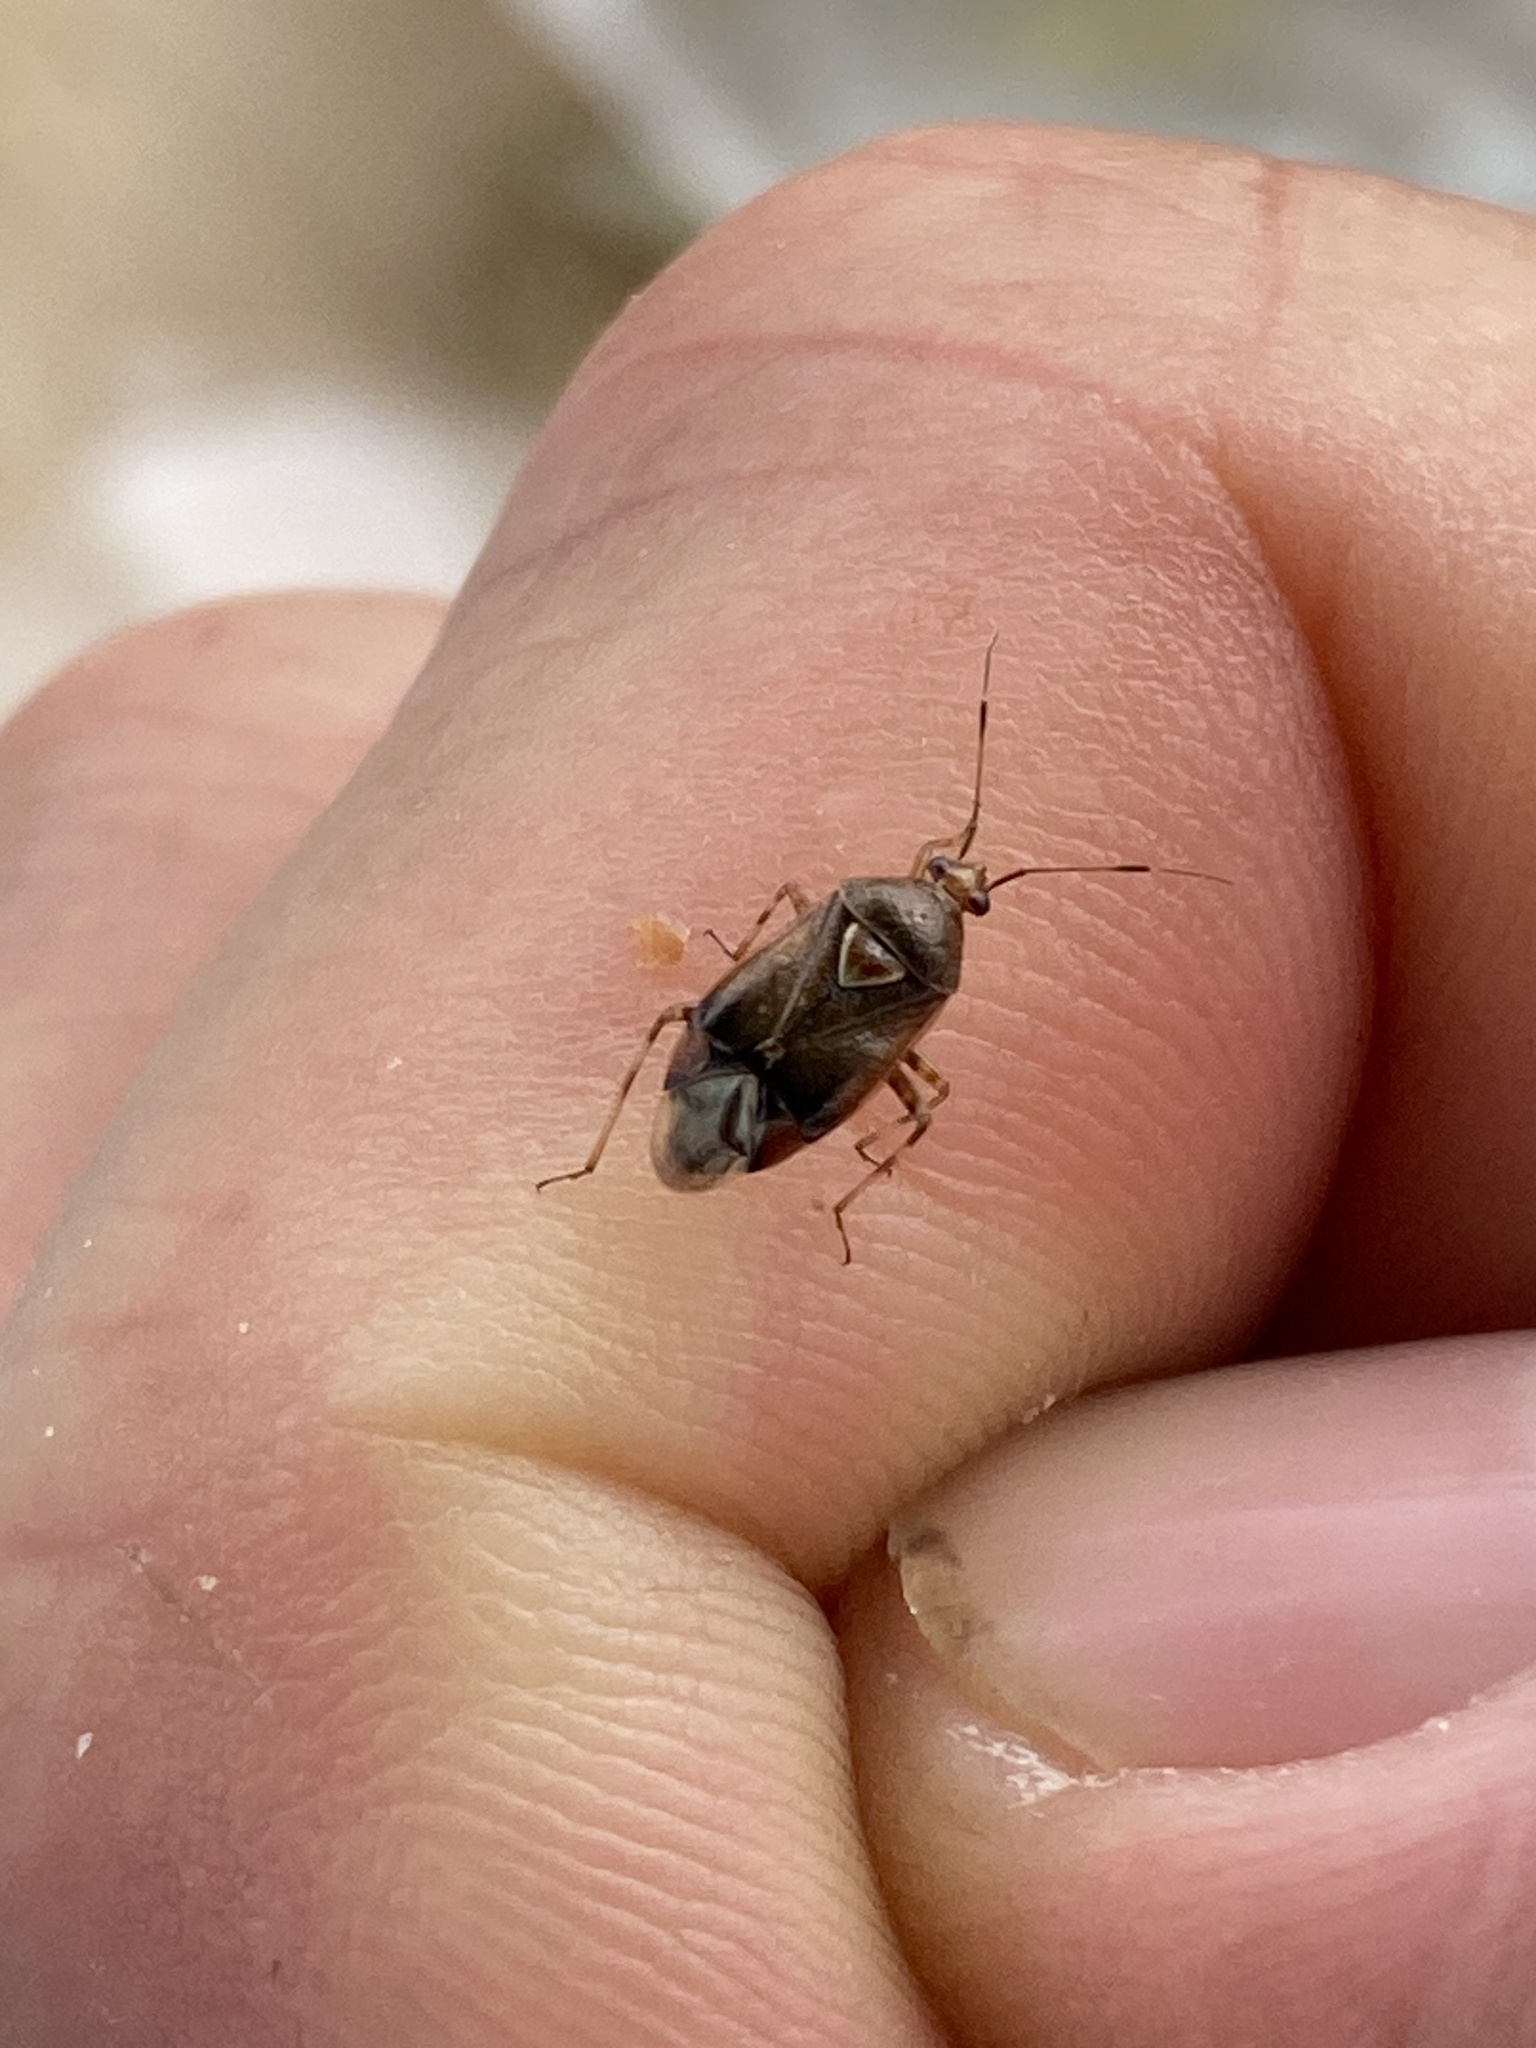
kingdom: Animalia
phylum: Arthropoda
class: Insecta
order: Hemiptera
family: Miridae
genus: Deraeocoris
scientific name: Deraeocoris flavilinea
